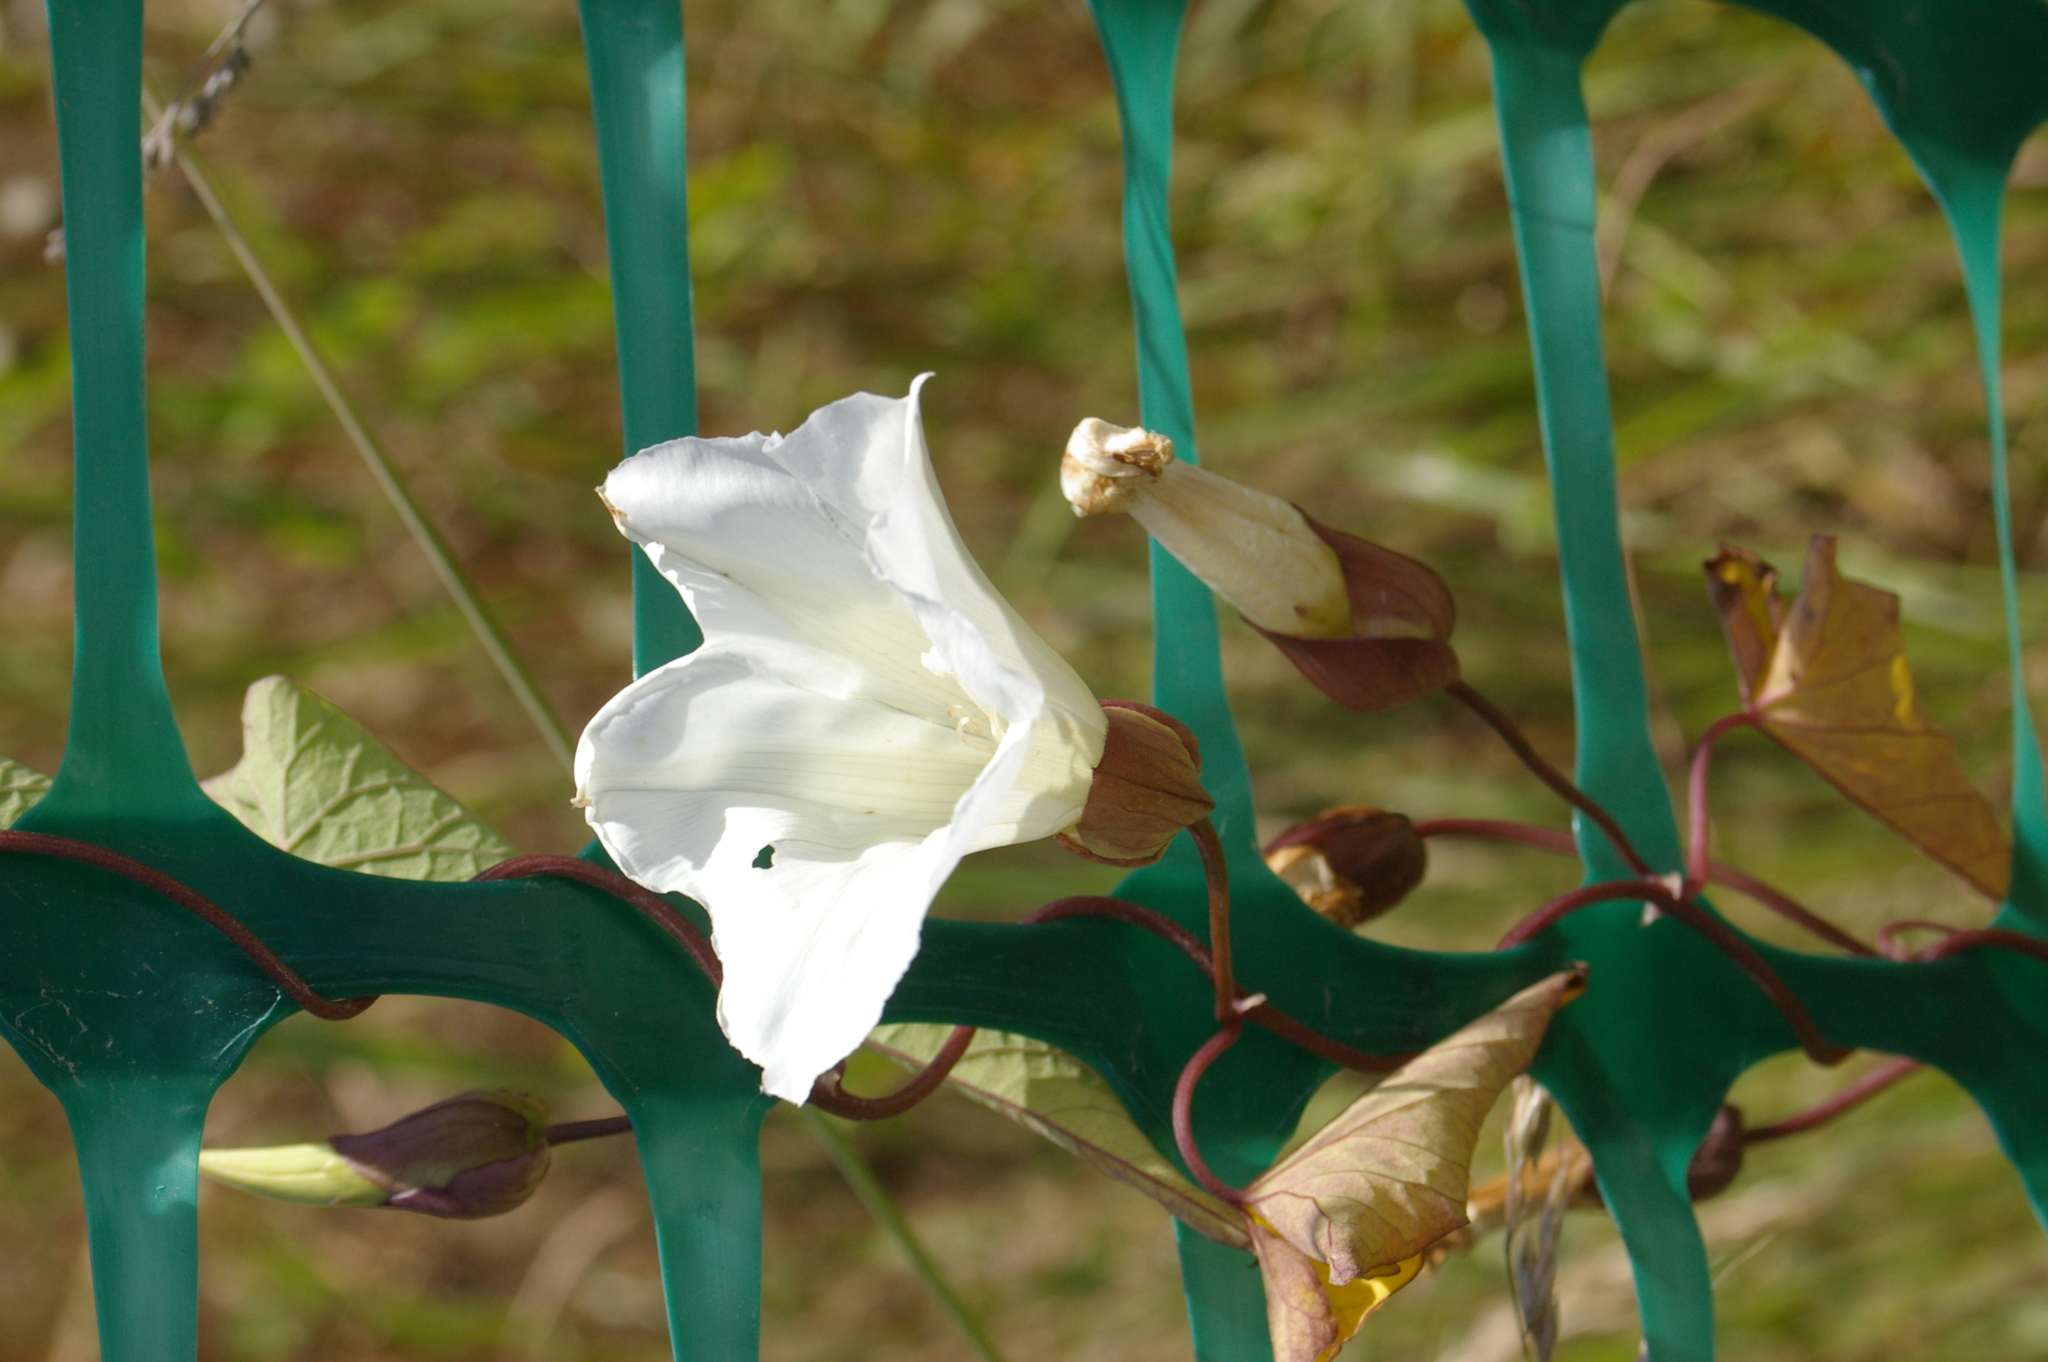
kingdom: Plantae
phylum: Tracheophyta
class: Magnoliopsida
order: Solanales
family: Convolvulaceae
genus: Calystegia
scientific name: Calystegia silvatica
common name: Large bindweed
